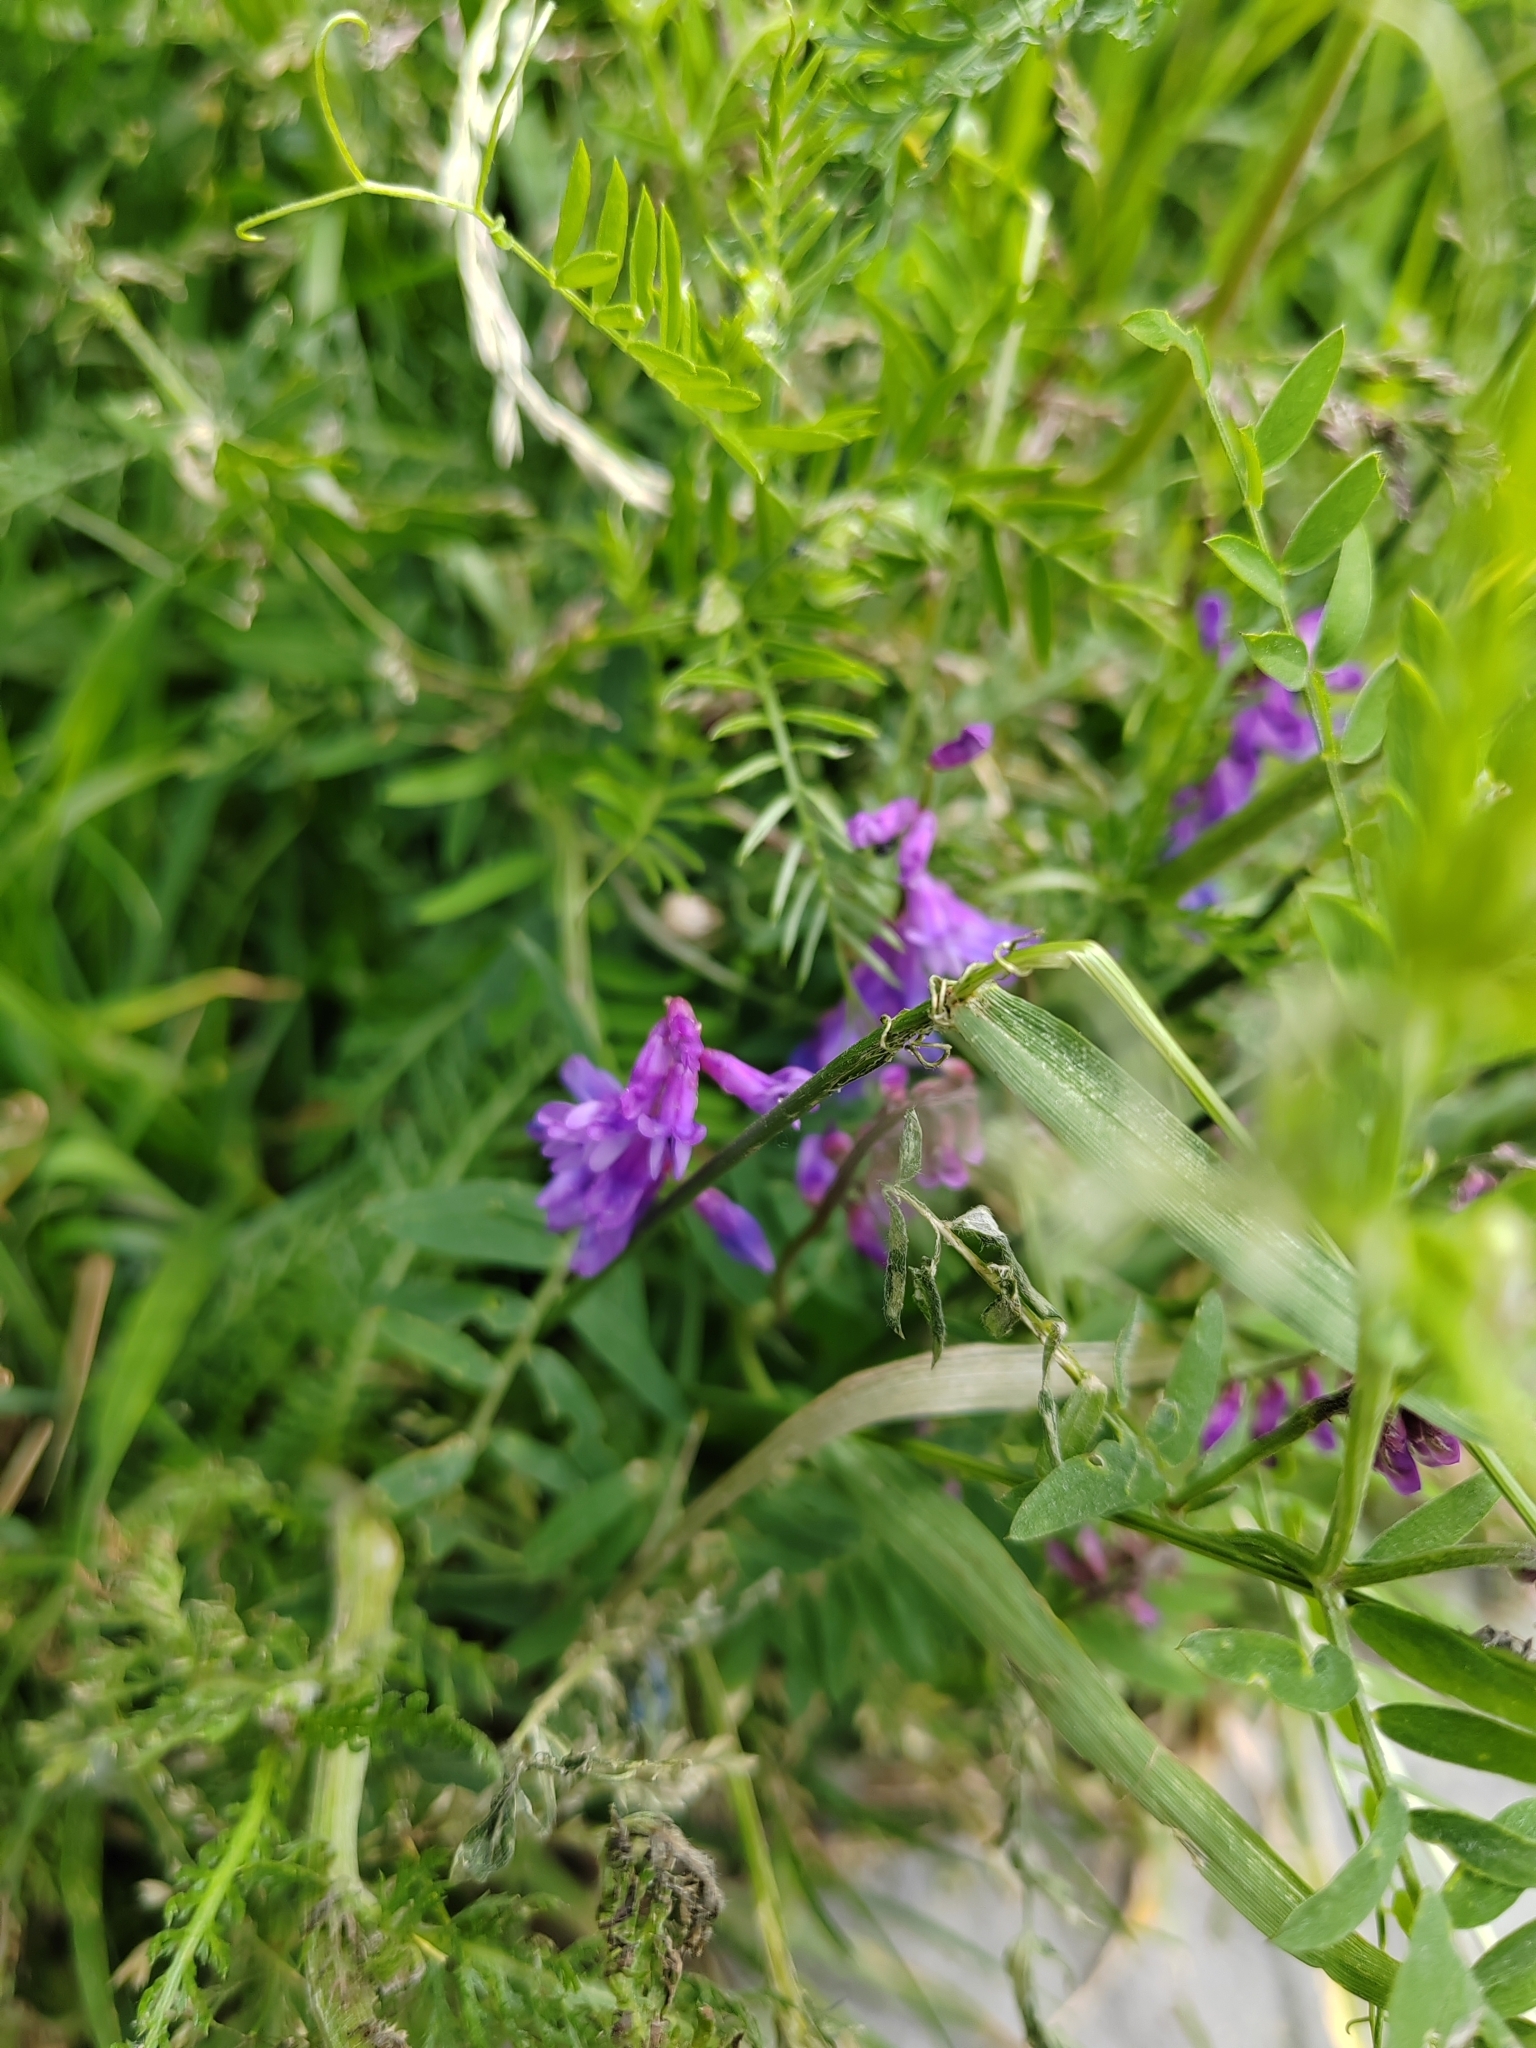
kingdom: Plantae
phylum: Tracheophyta
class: Magnoliopsida
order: Fabales
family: Fabaceae
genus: Vicia
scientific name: Vicia cracca
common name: Bird vetch
